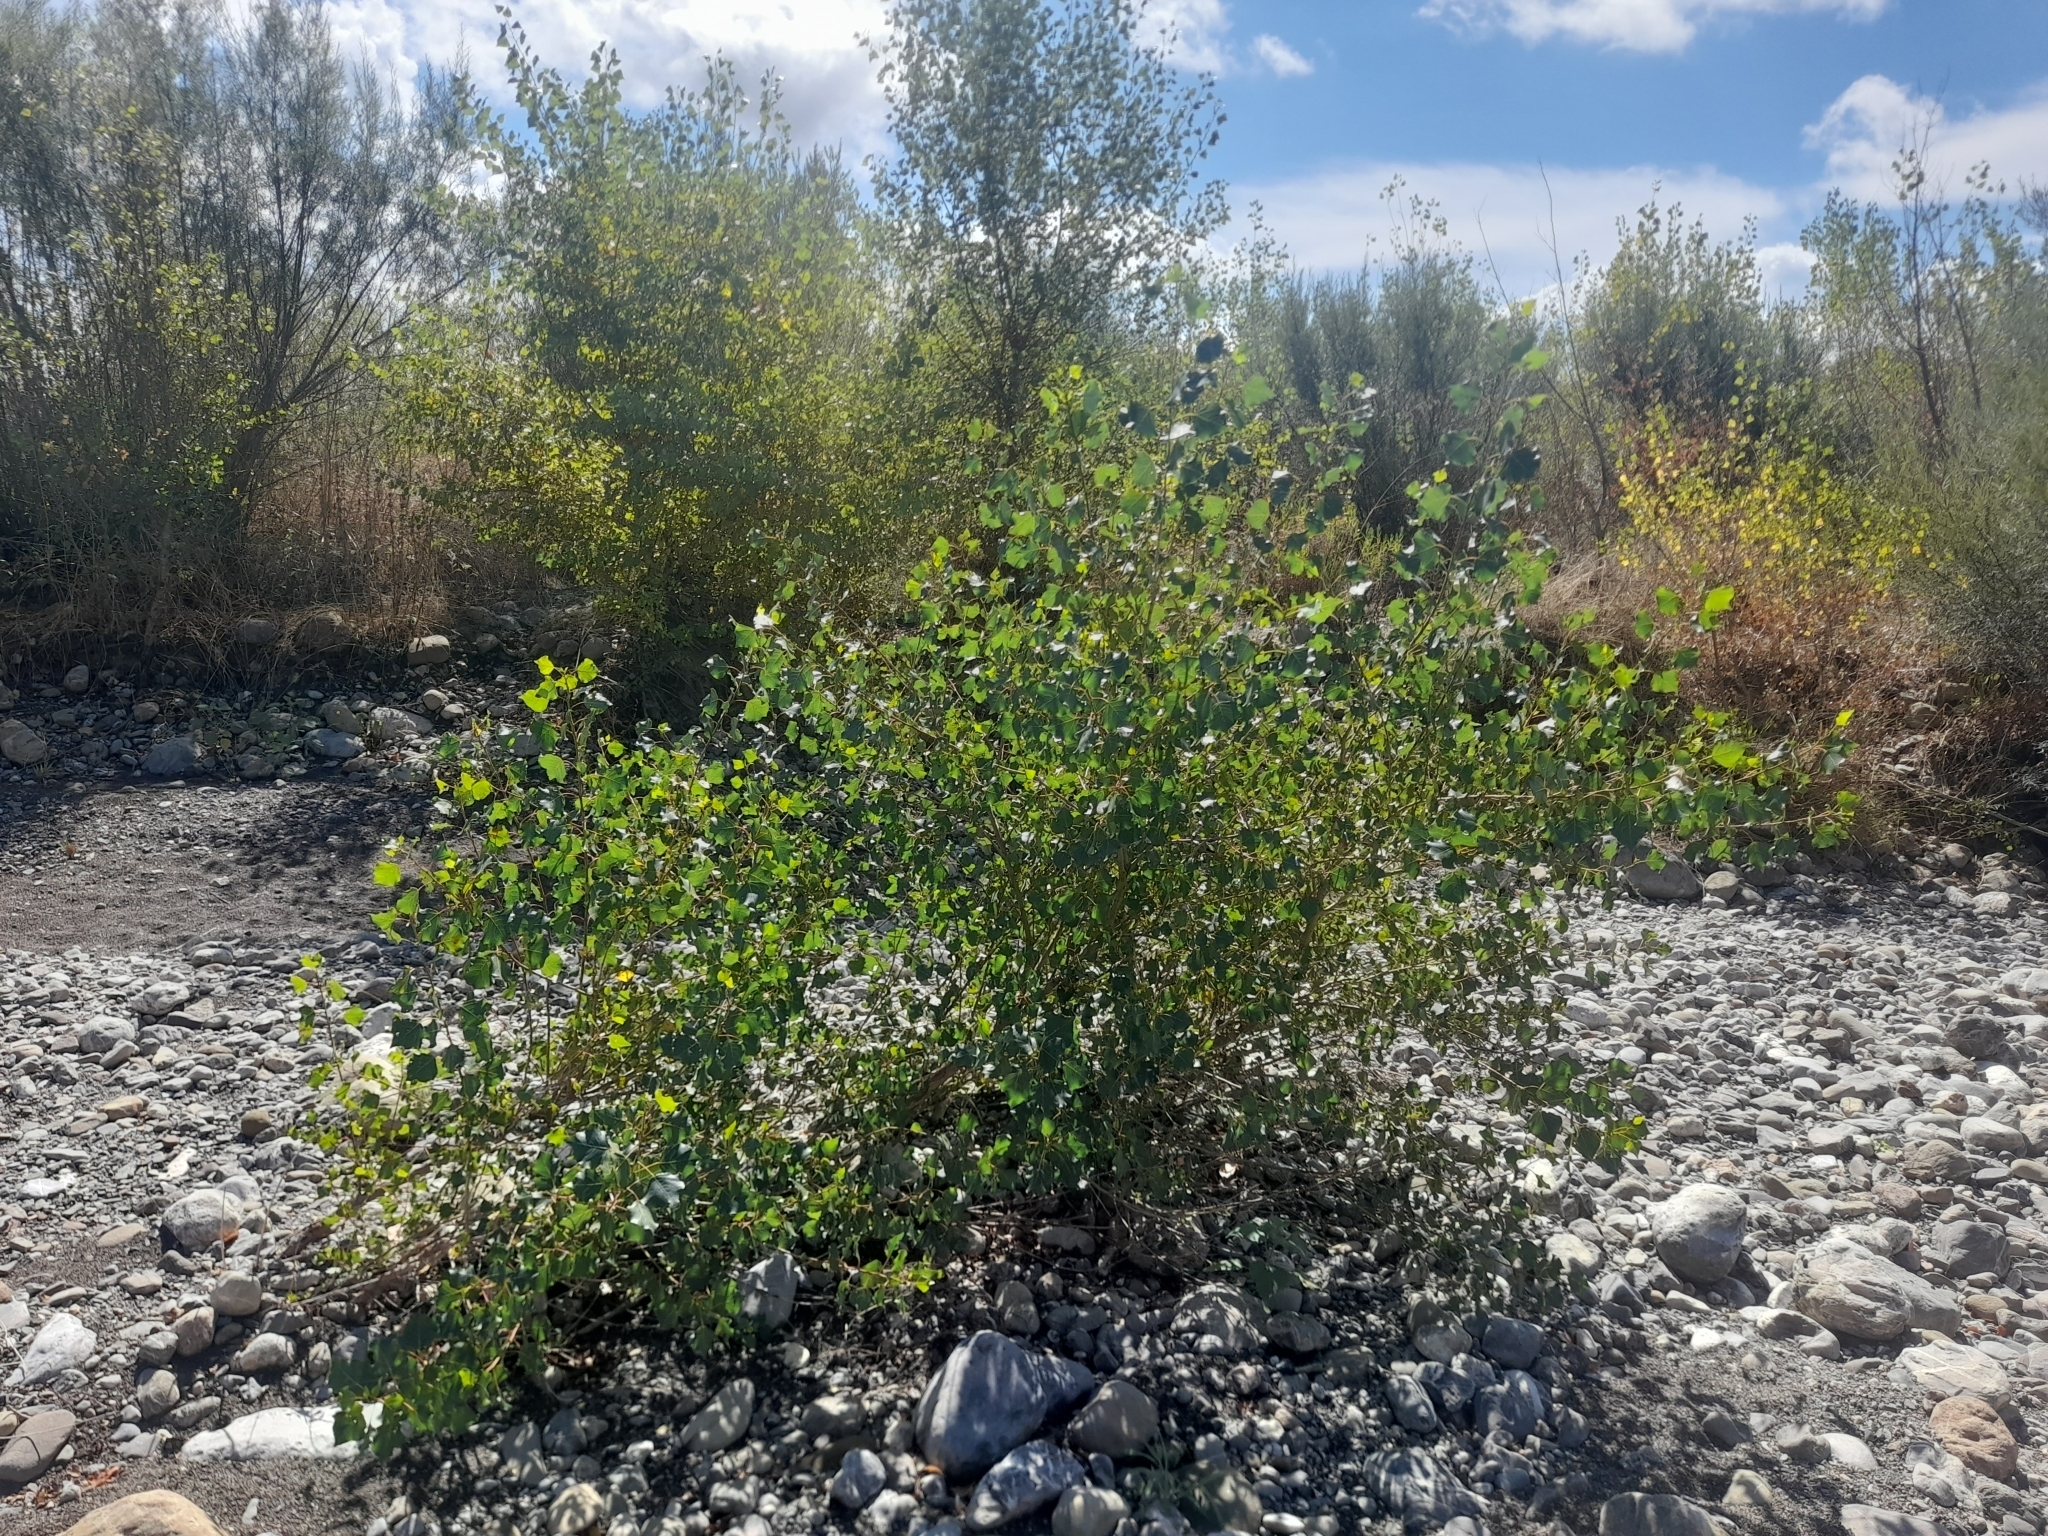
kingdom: Plantae
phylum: Tracheophyta
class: Magnoliopsida
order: Malpighiales
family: Salicaceae
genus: Populus
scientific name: Populus nigra
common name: Black poplar
